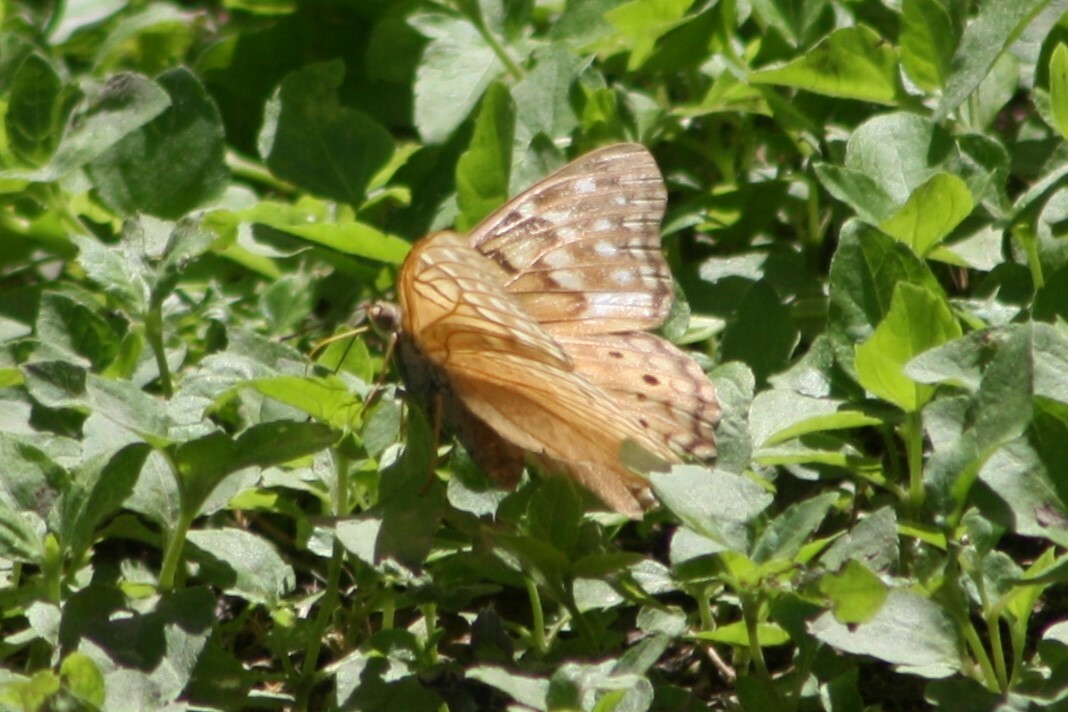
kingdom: Animalia
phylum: Arthropoda
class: Insecta
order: Lepidoptera
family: Nymphalidae
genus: Asterocampa
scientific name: Asterocampa clyton
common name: Tawny emperor
